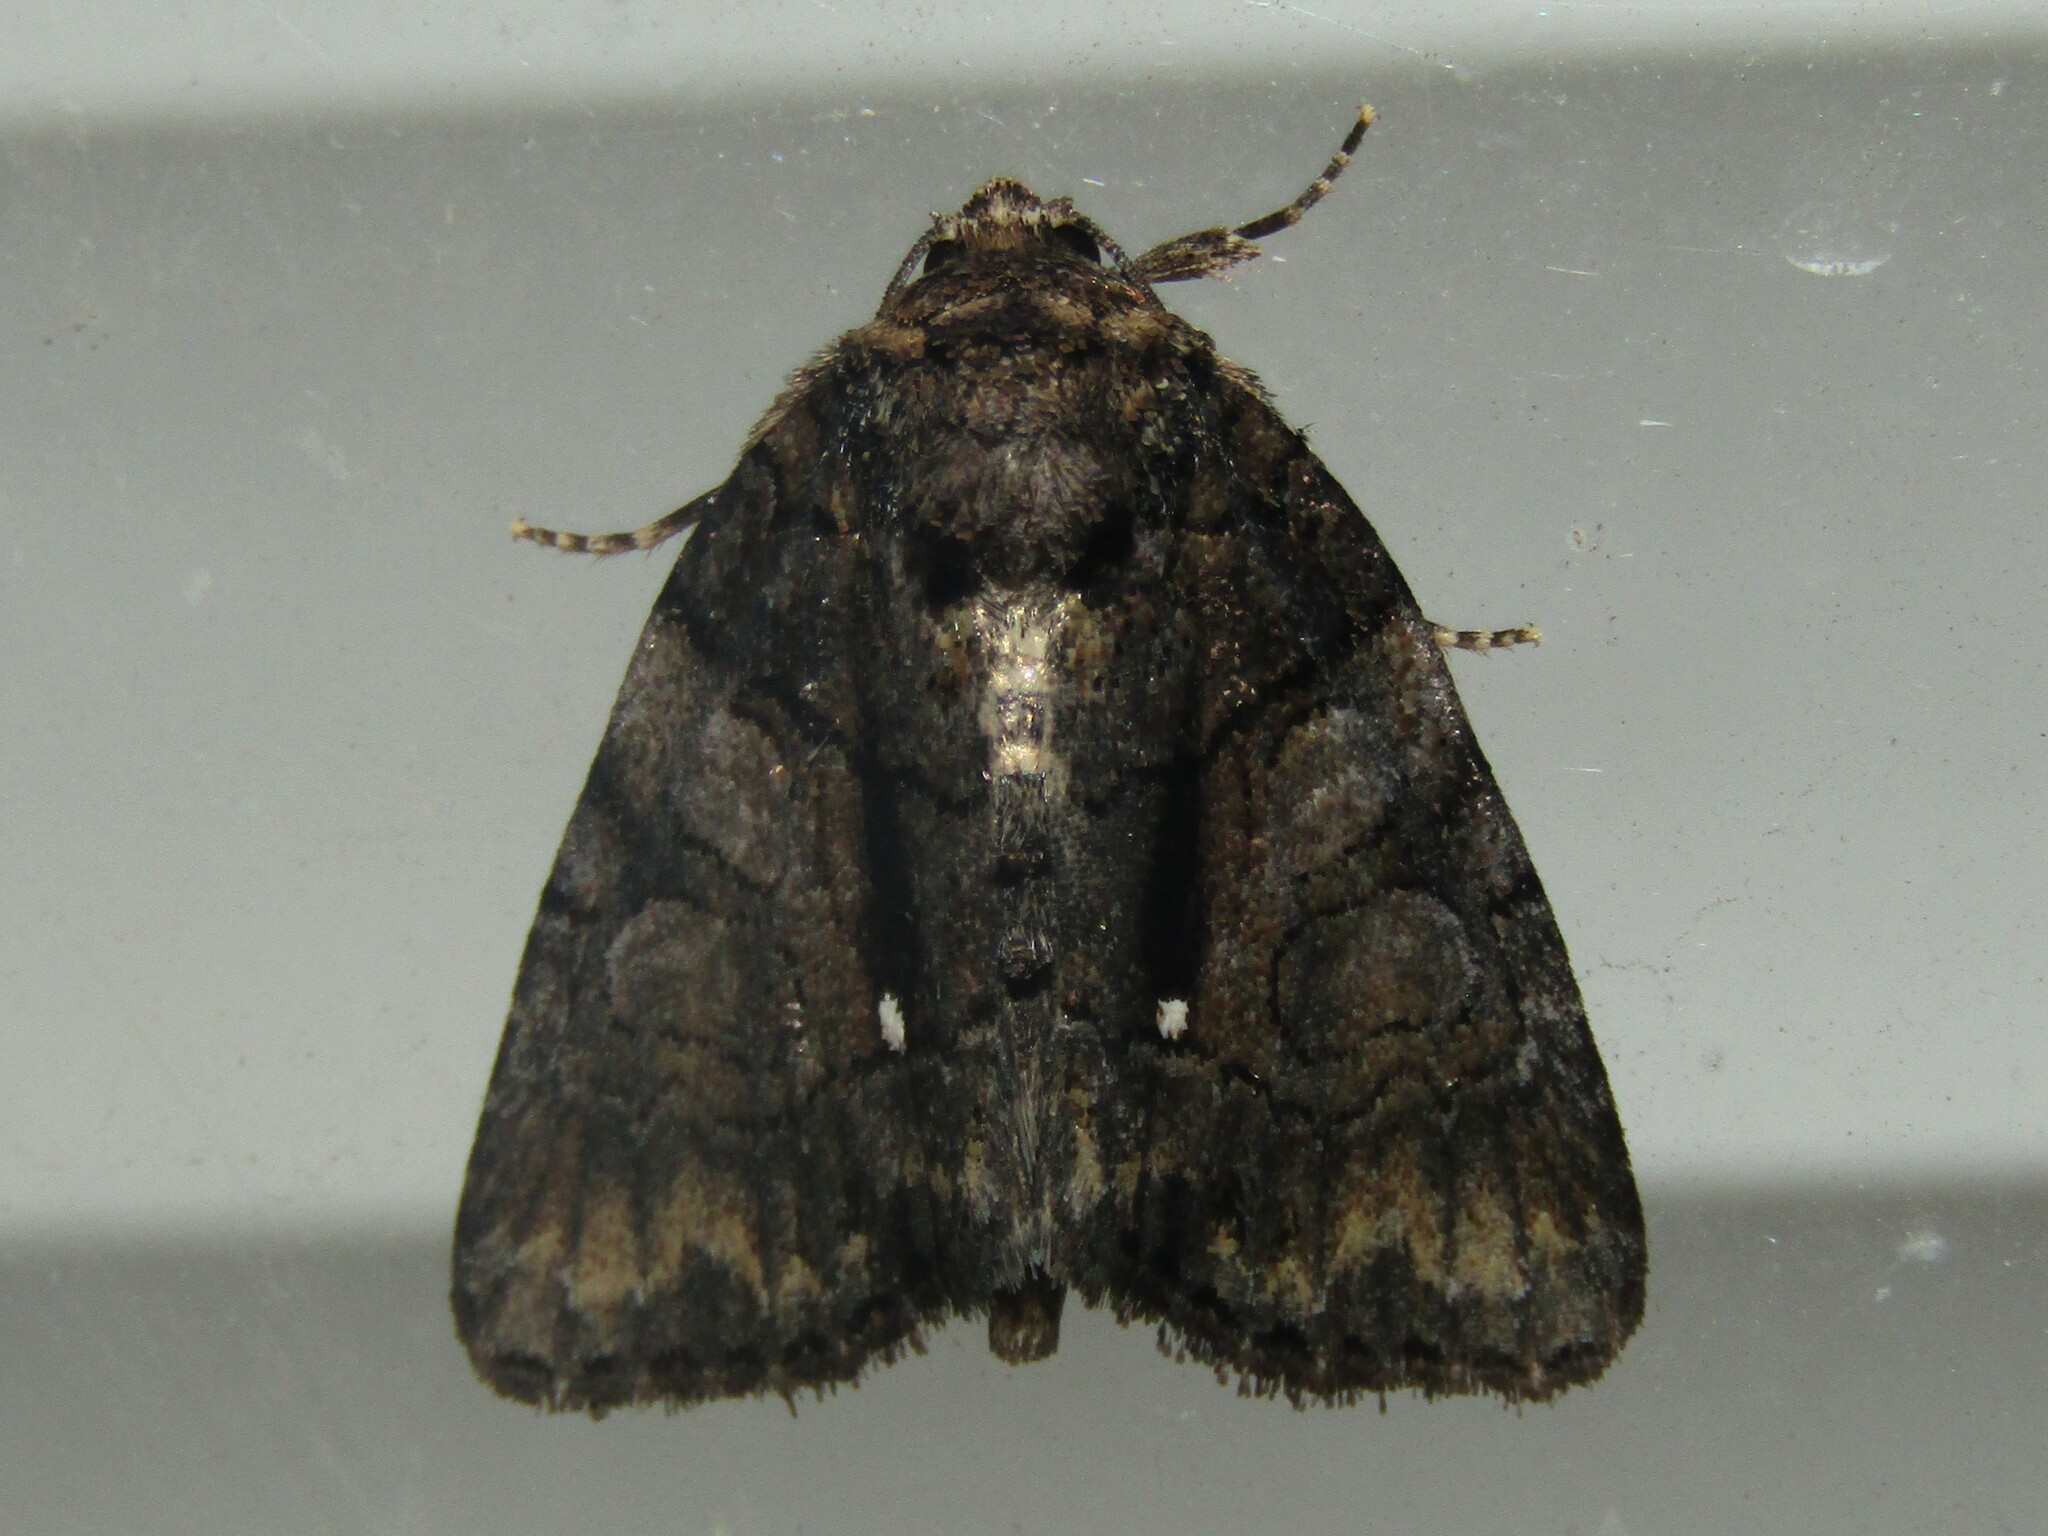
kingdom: Animalia
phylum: Arthropoda
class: Insecta
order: Lepidoptera
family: Noctuidae
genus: Chytonix
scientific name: Chytonix palliatricula
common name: Cloaked marvel
